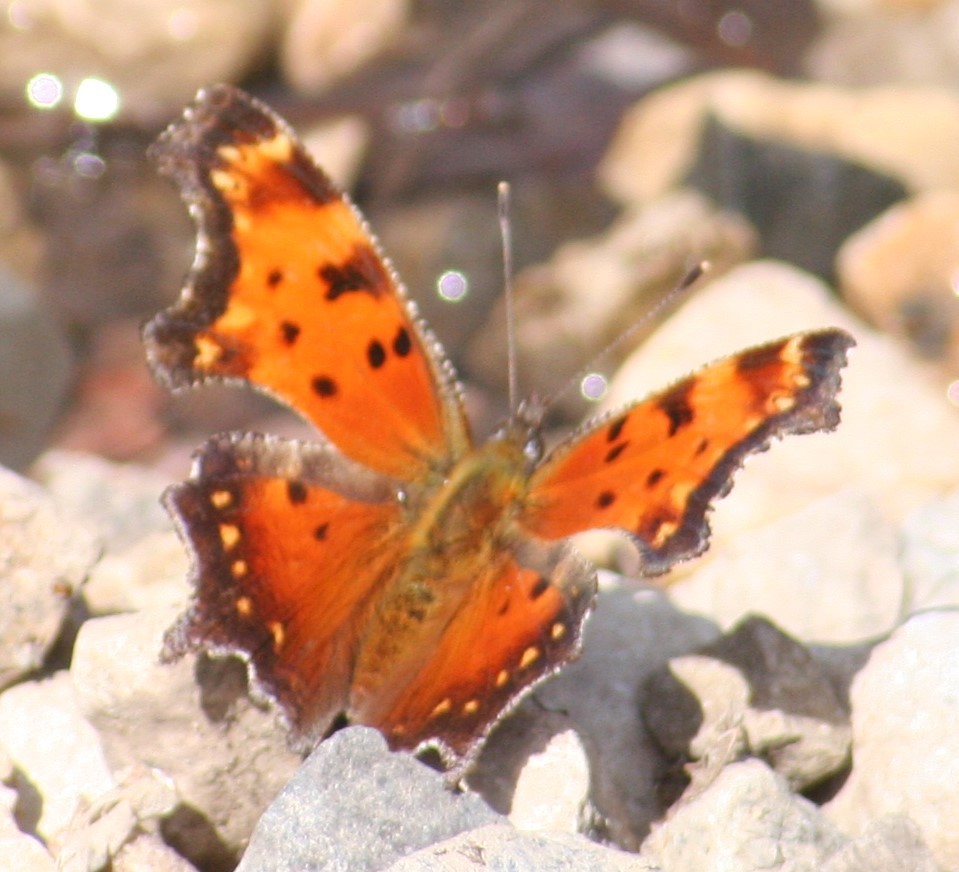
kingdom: Animalia
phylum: Arthropoda
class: Insecta
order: Lepidoptera
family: Nymphalidae
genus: Polygonia
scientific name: Polygonia progne
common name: Gray comma
